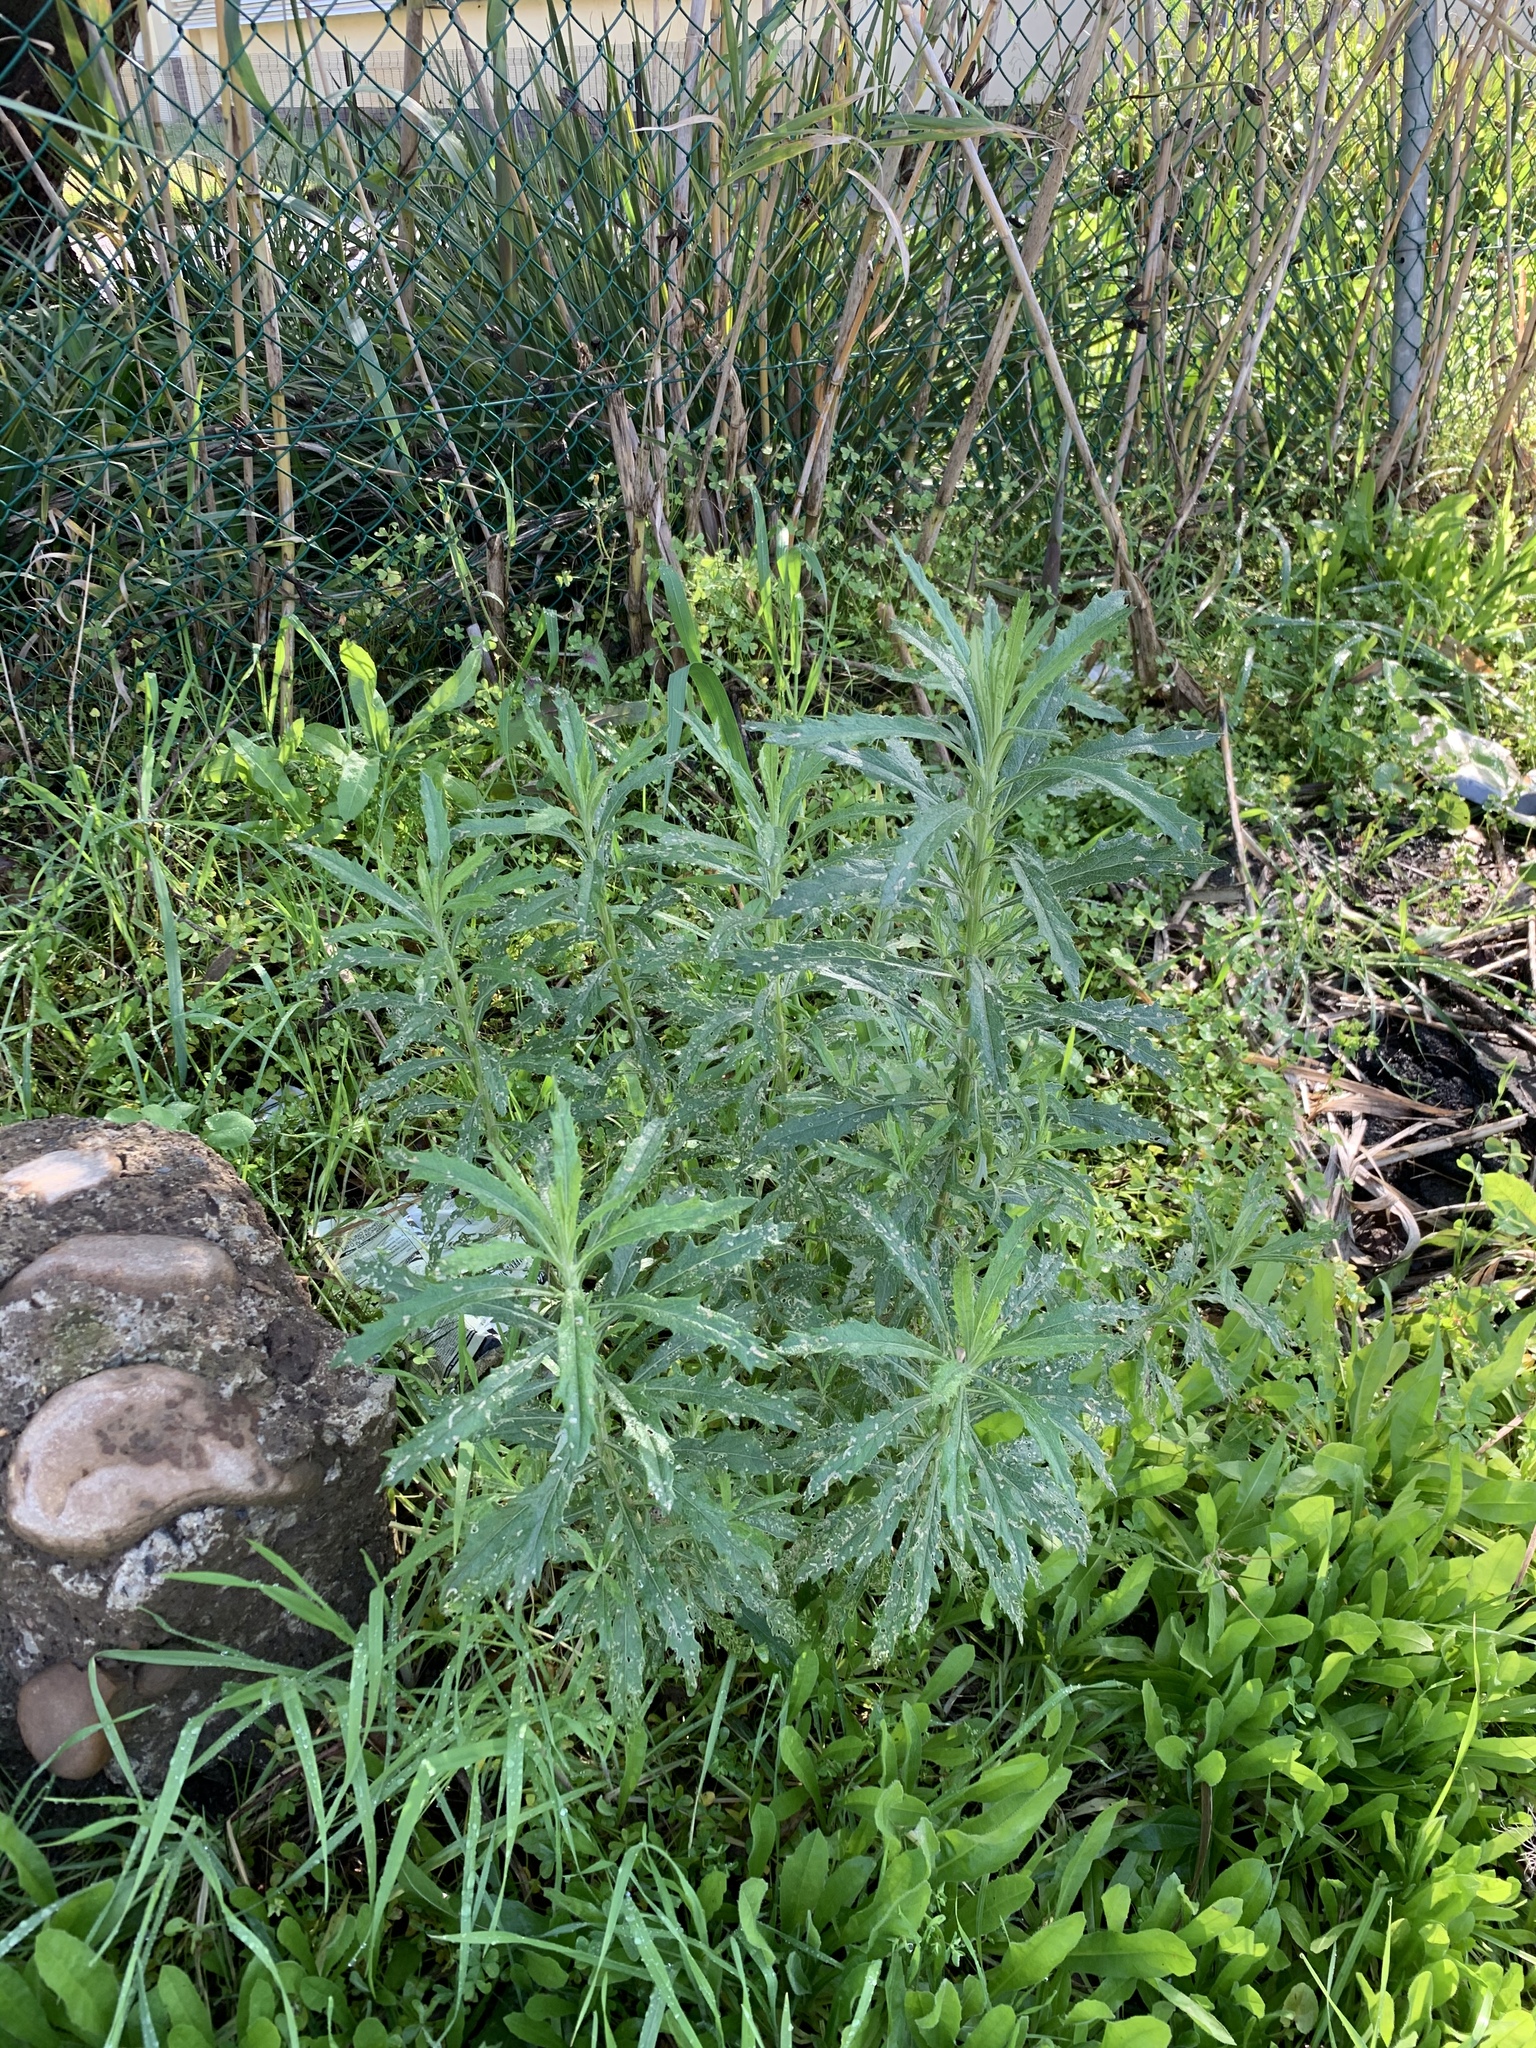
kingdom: Plantae
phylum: Tracheophyta
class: Magnoliopsida
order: Asterales
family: Asteraceae
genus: Senecio
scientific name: Senecio pterophorus
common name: Shoddy ragwort
